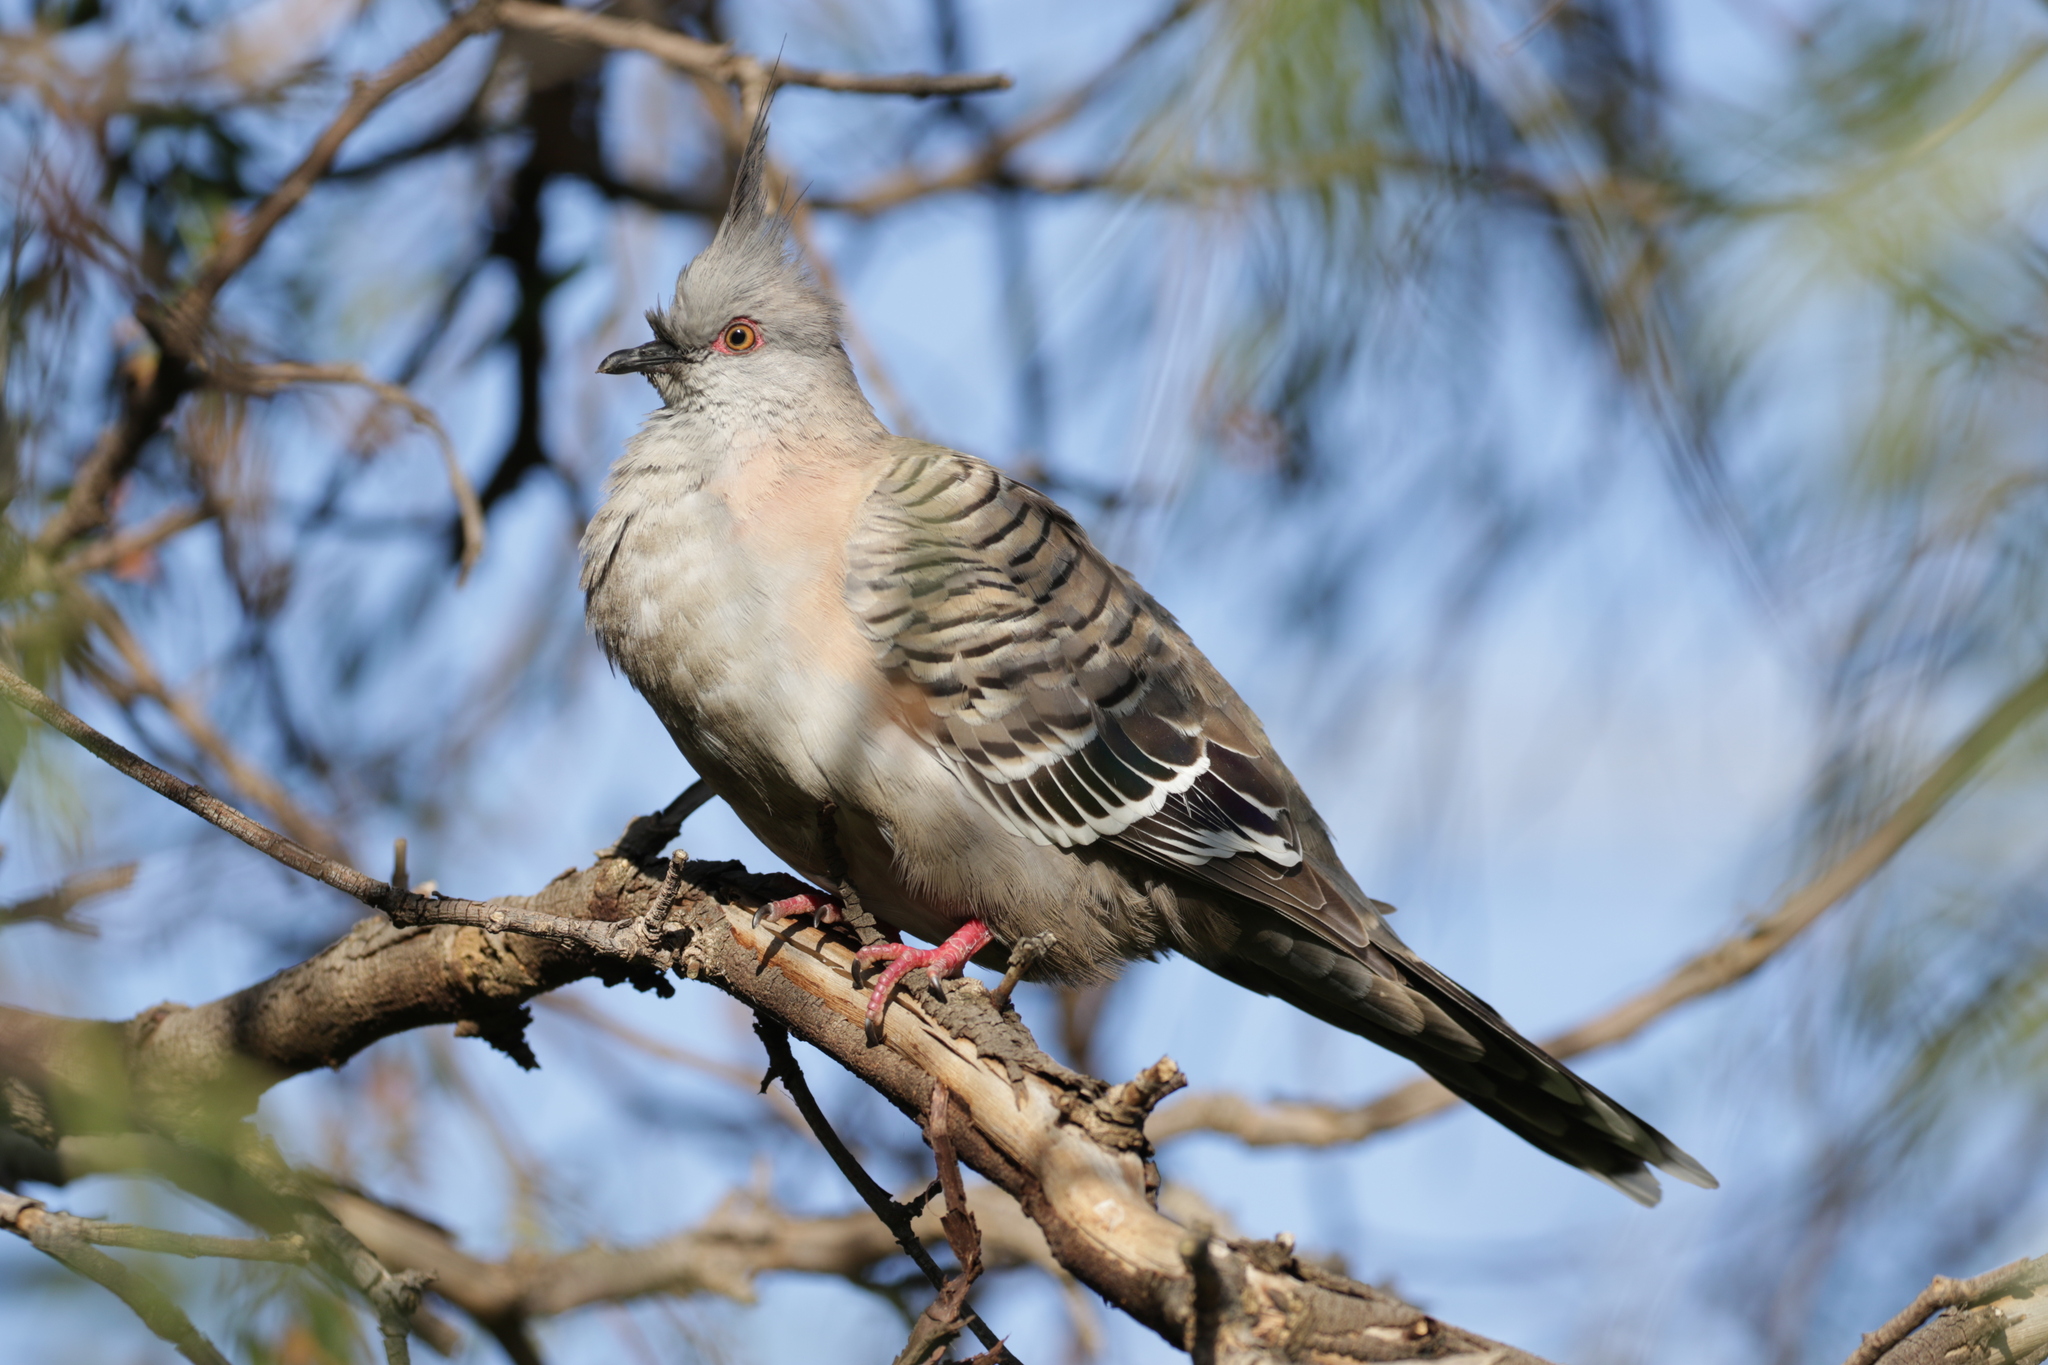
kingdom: Animalia
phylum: Chordata
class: Aves
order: Columbiformes
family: Columbidae
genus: Ocyphaps
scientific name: Ocyphaps lophotes
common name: Crested pigeon
